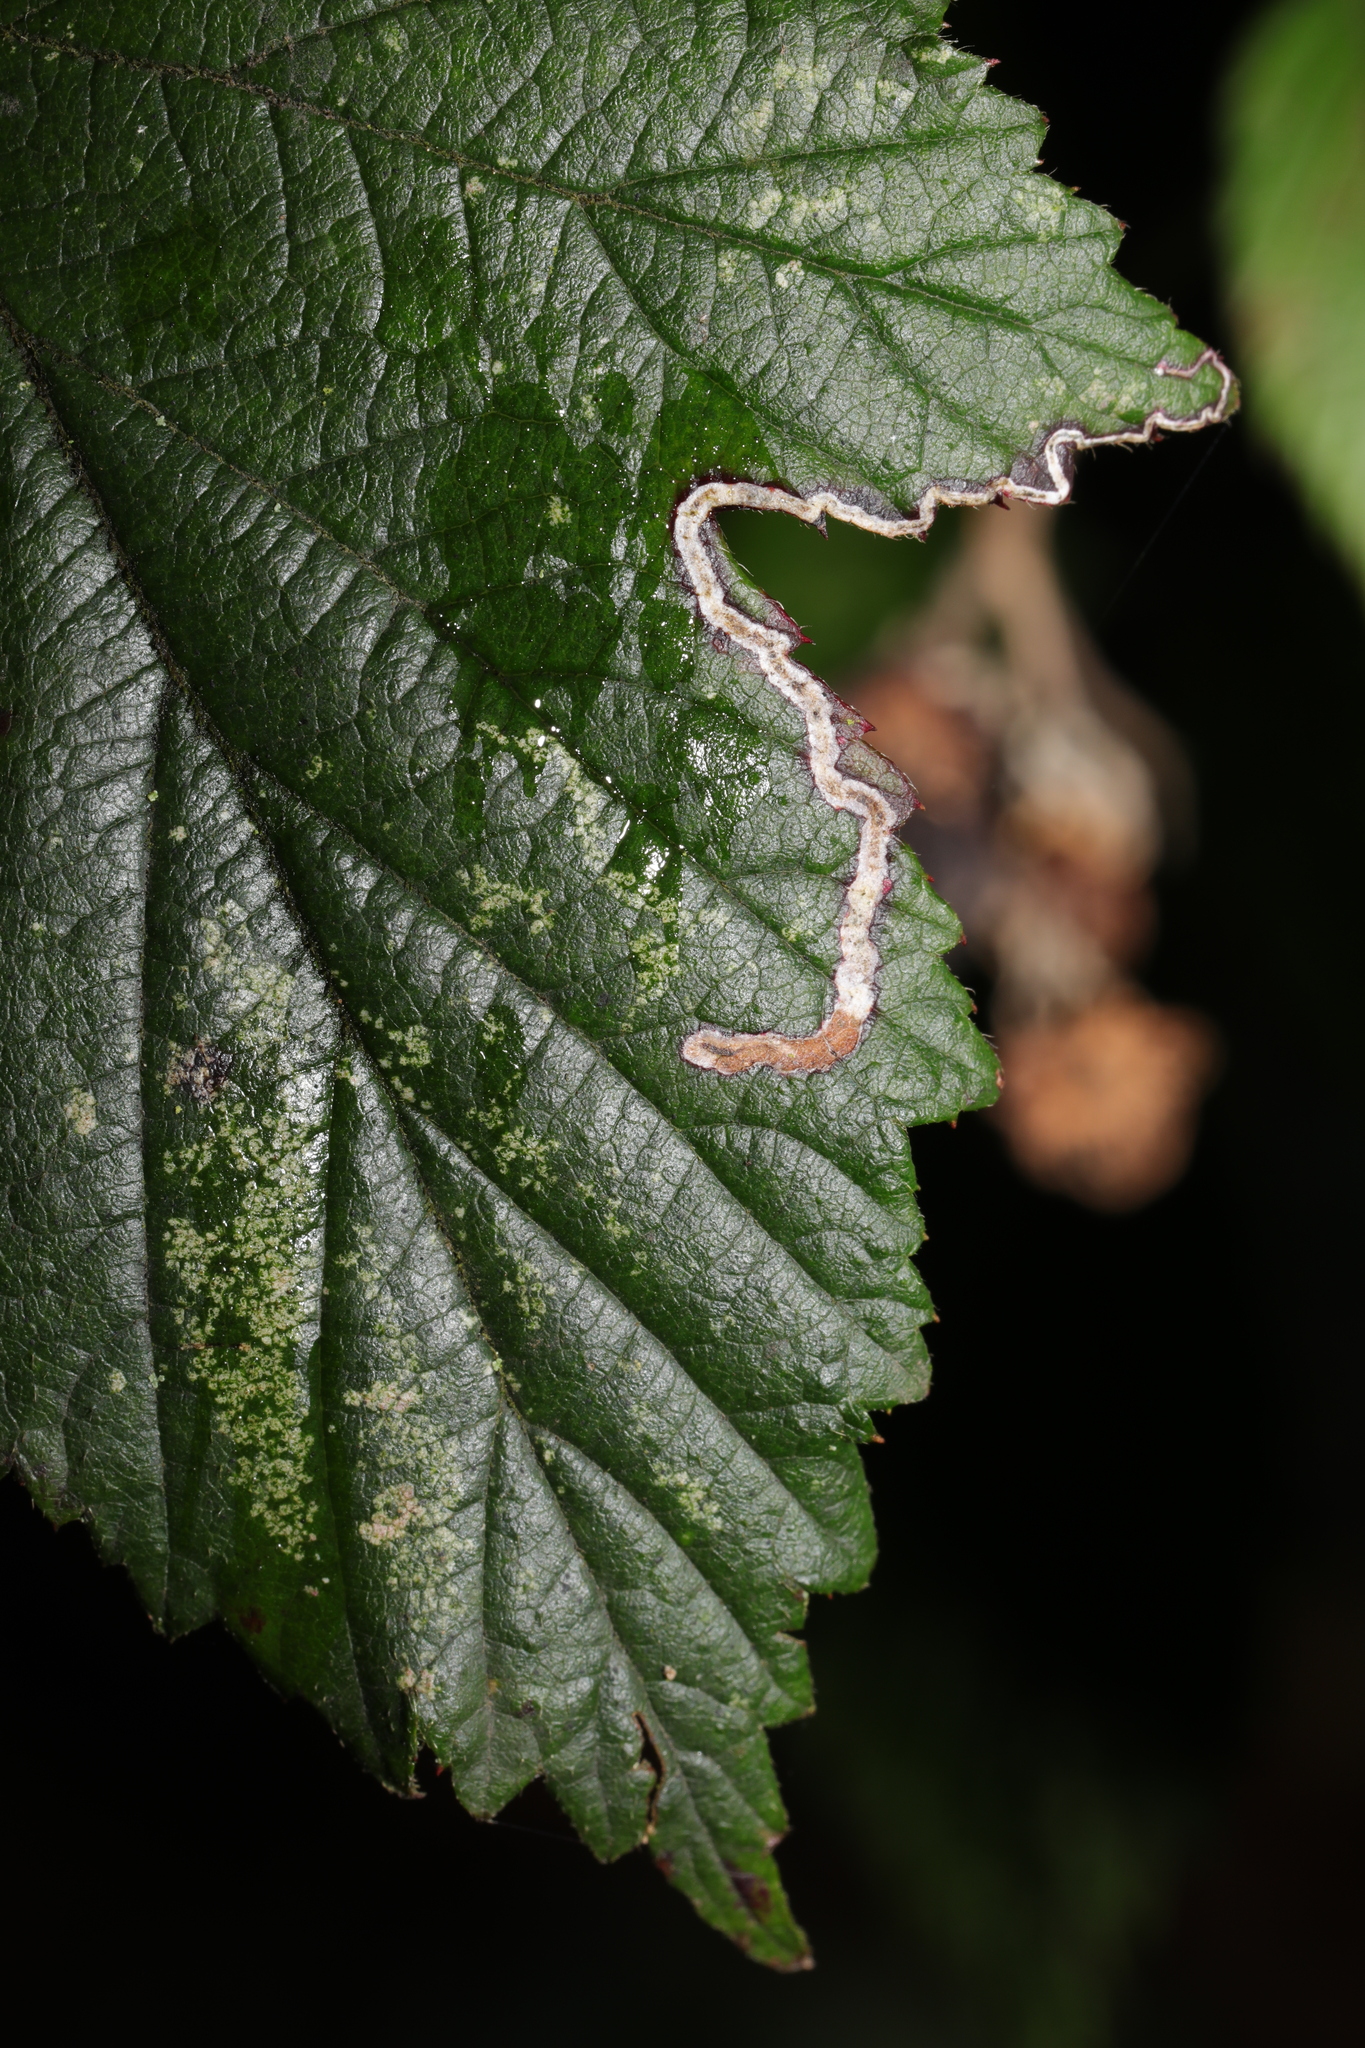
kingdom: Animalia
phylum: Arthropoda
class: Insecta
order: Lepidoptera
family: Nepticulidae
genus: Stigmella
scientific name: Stigmella aurella
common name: Golden pigmy
